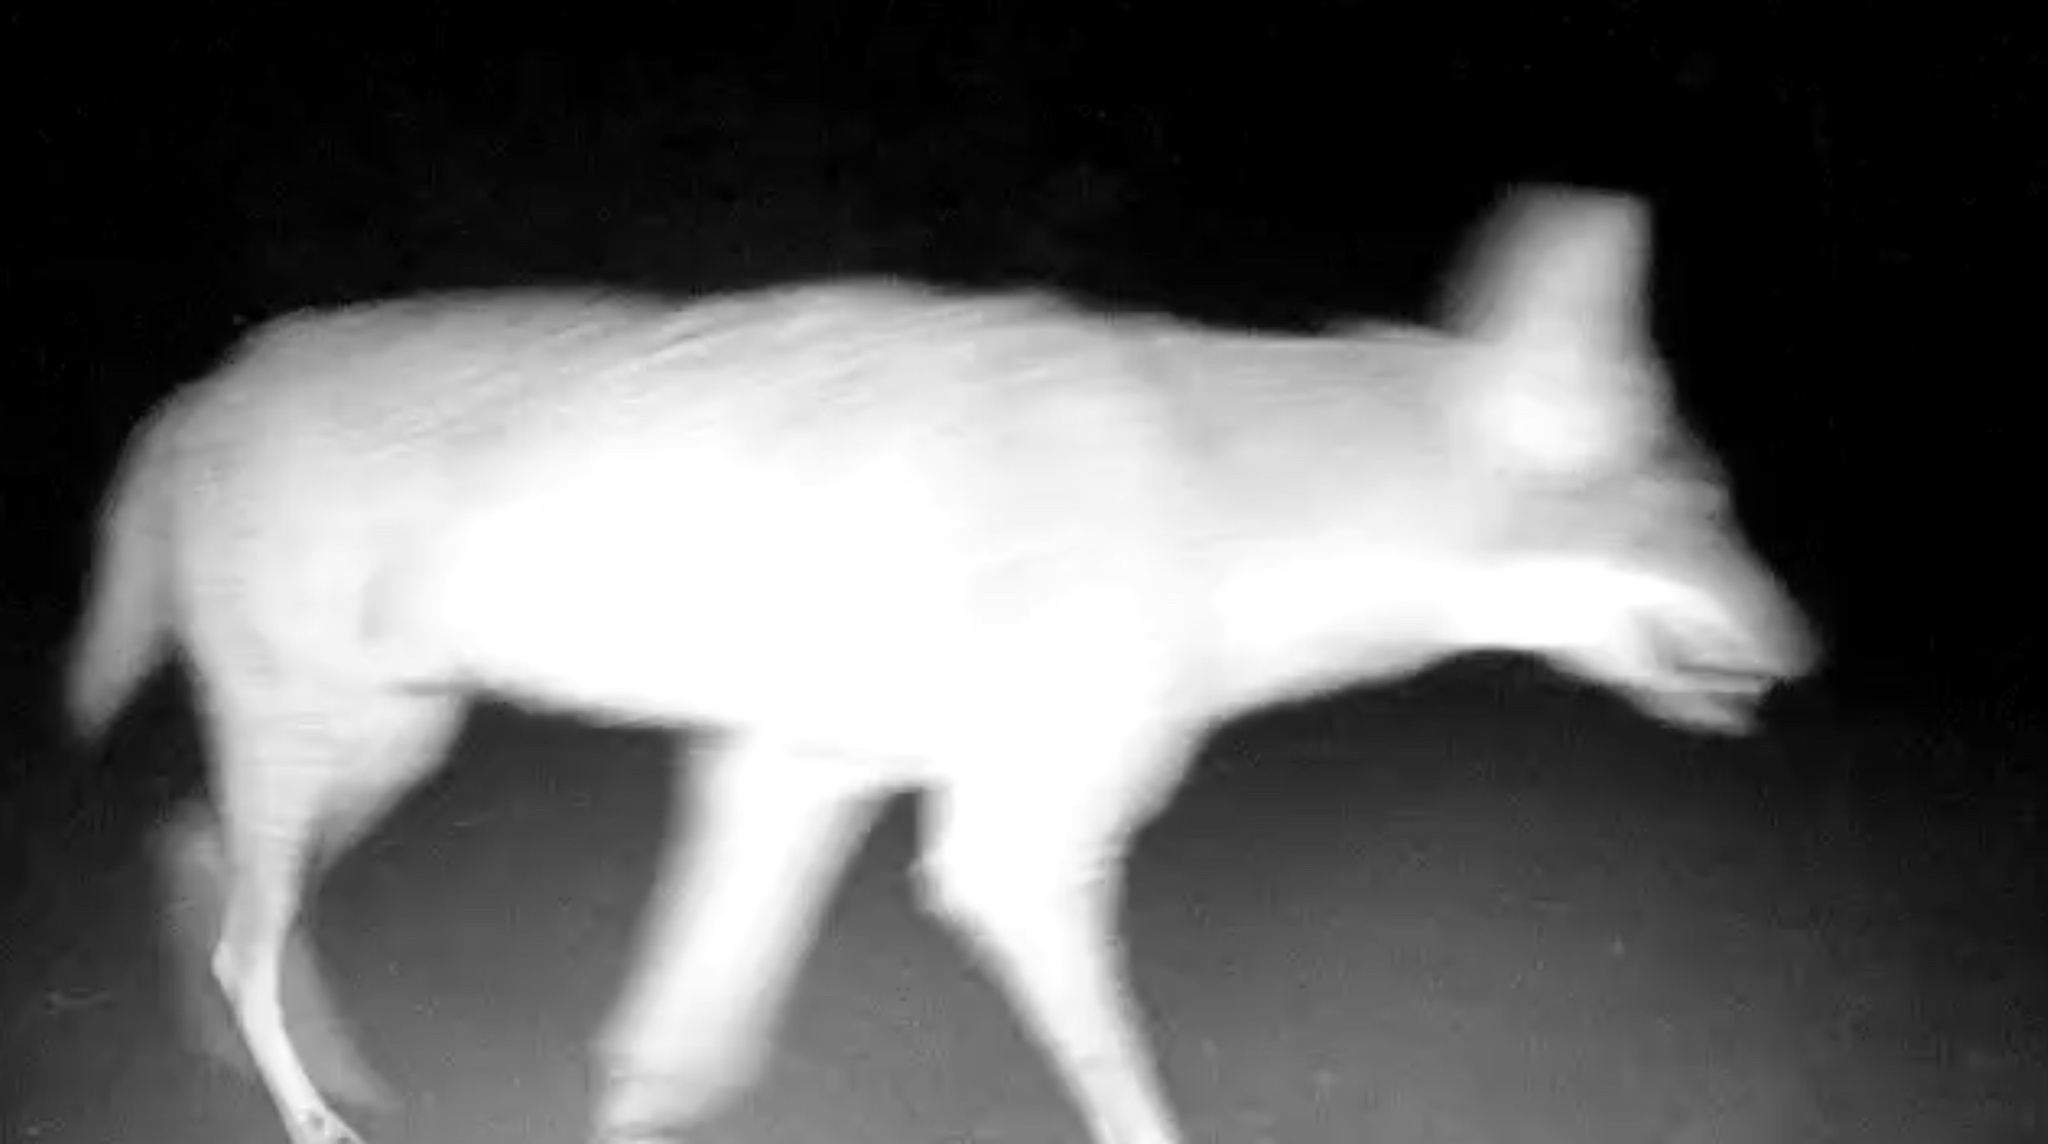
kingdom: Animalia
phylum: Chordata
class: Mammalia
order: Carnivora
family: Canidae
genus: Canis
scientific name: Canis latrans
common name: Coyote
